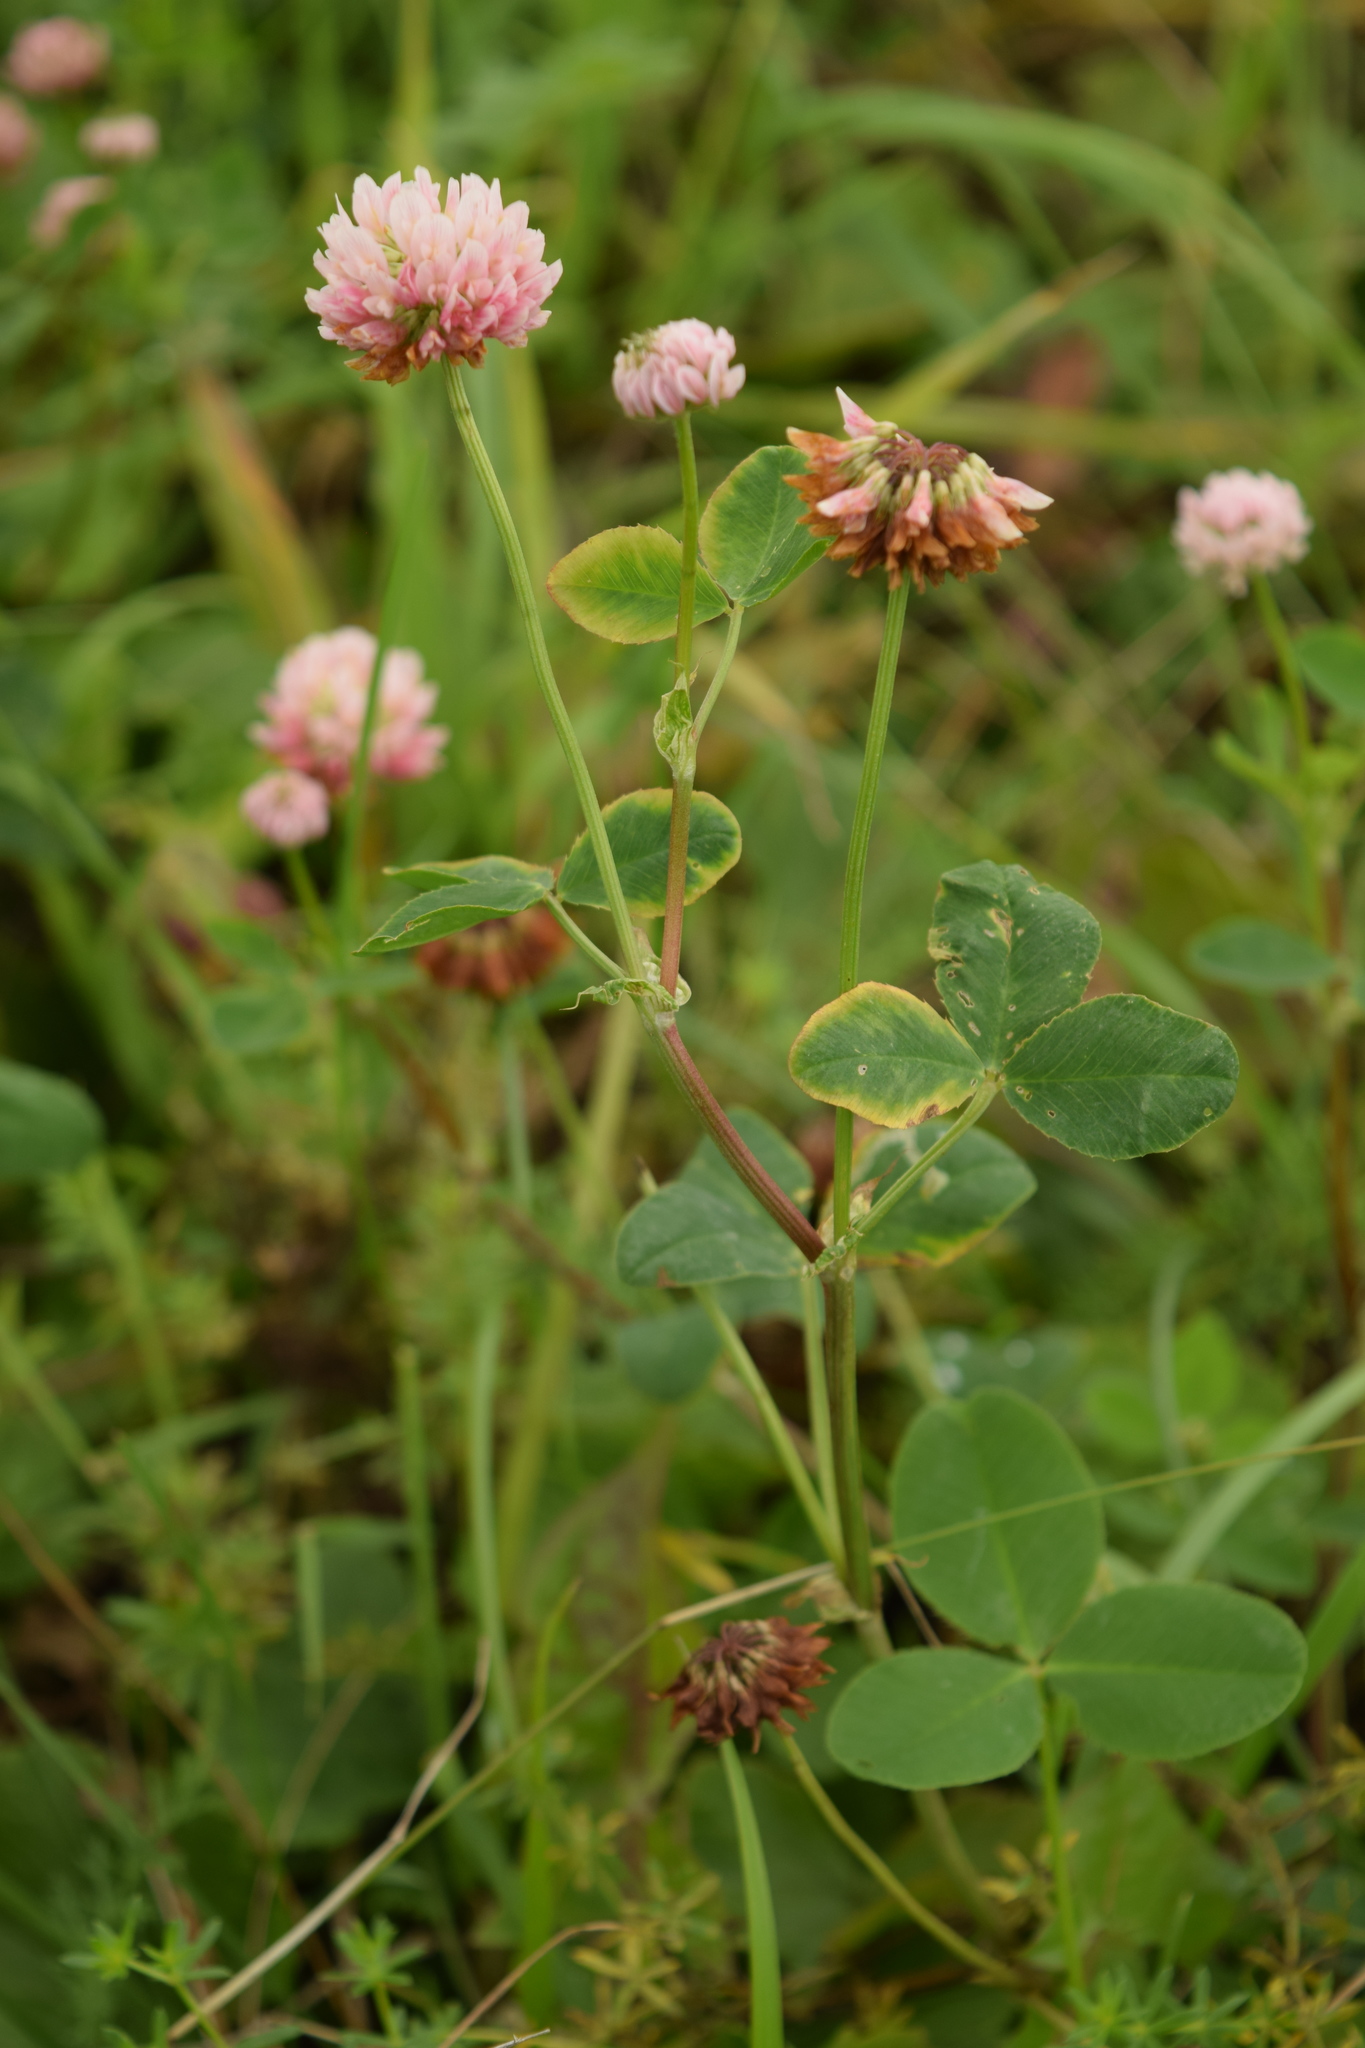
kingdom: Plantae
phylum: Tracheophyta
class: Magnoliopsida
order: Fabales
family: Fabaceae
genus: Trifolium
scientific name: Trifolium hybridum
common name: Alsike clover
